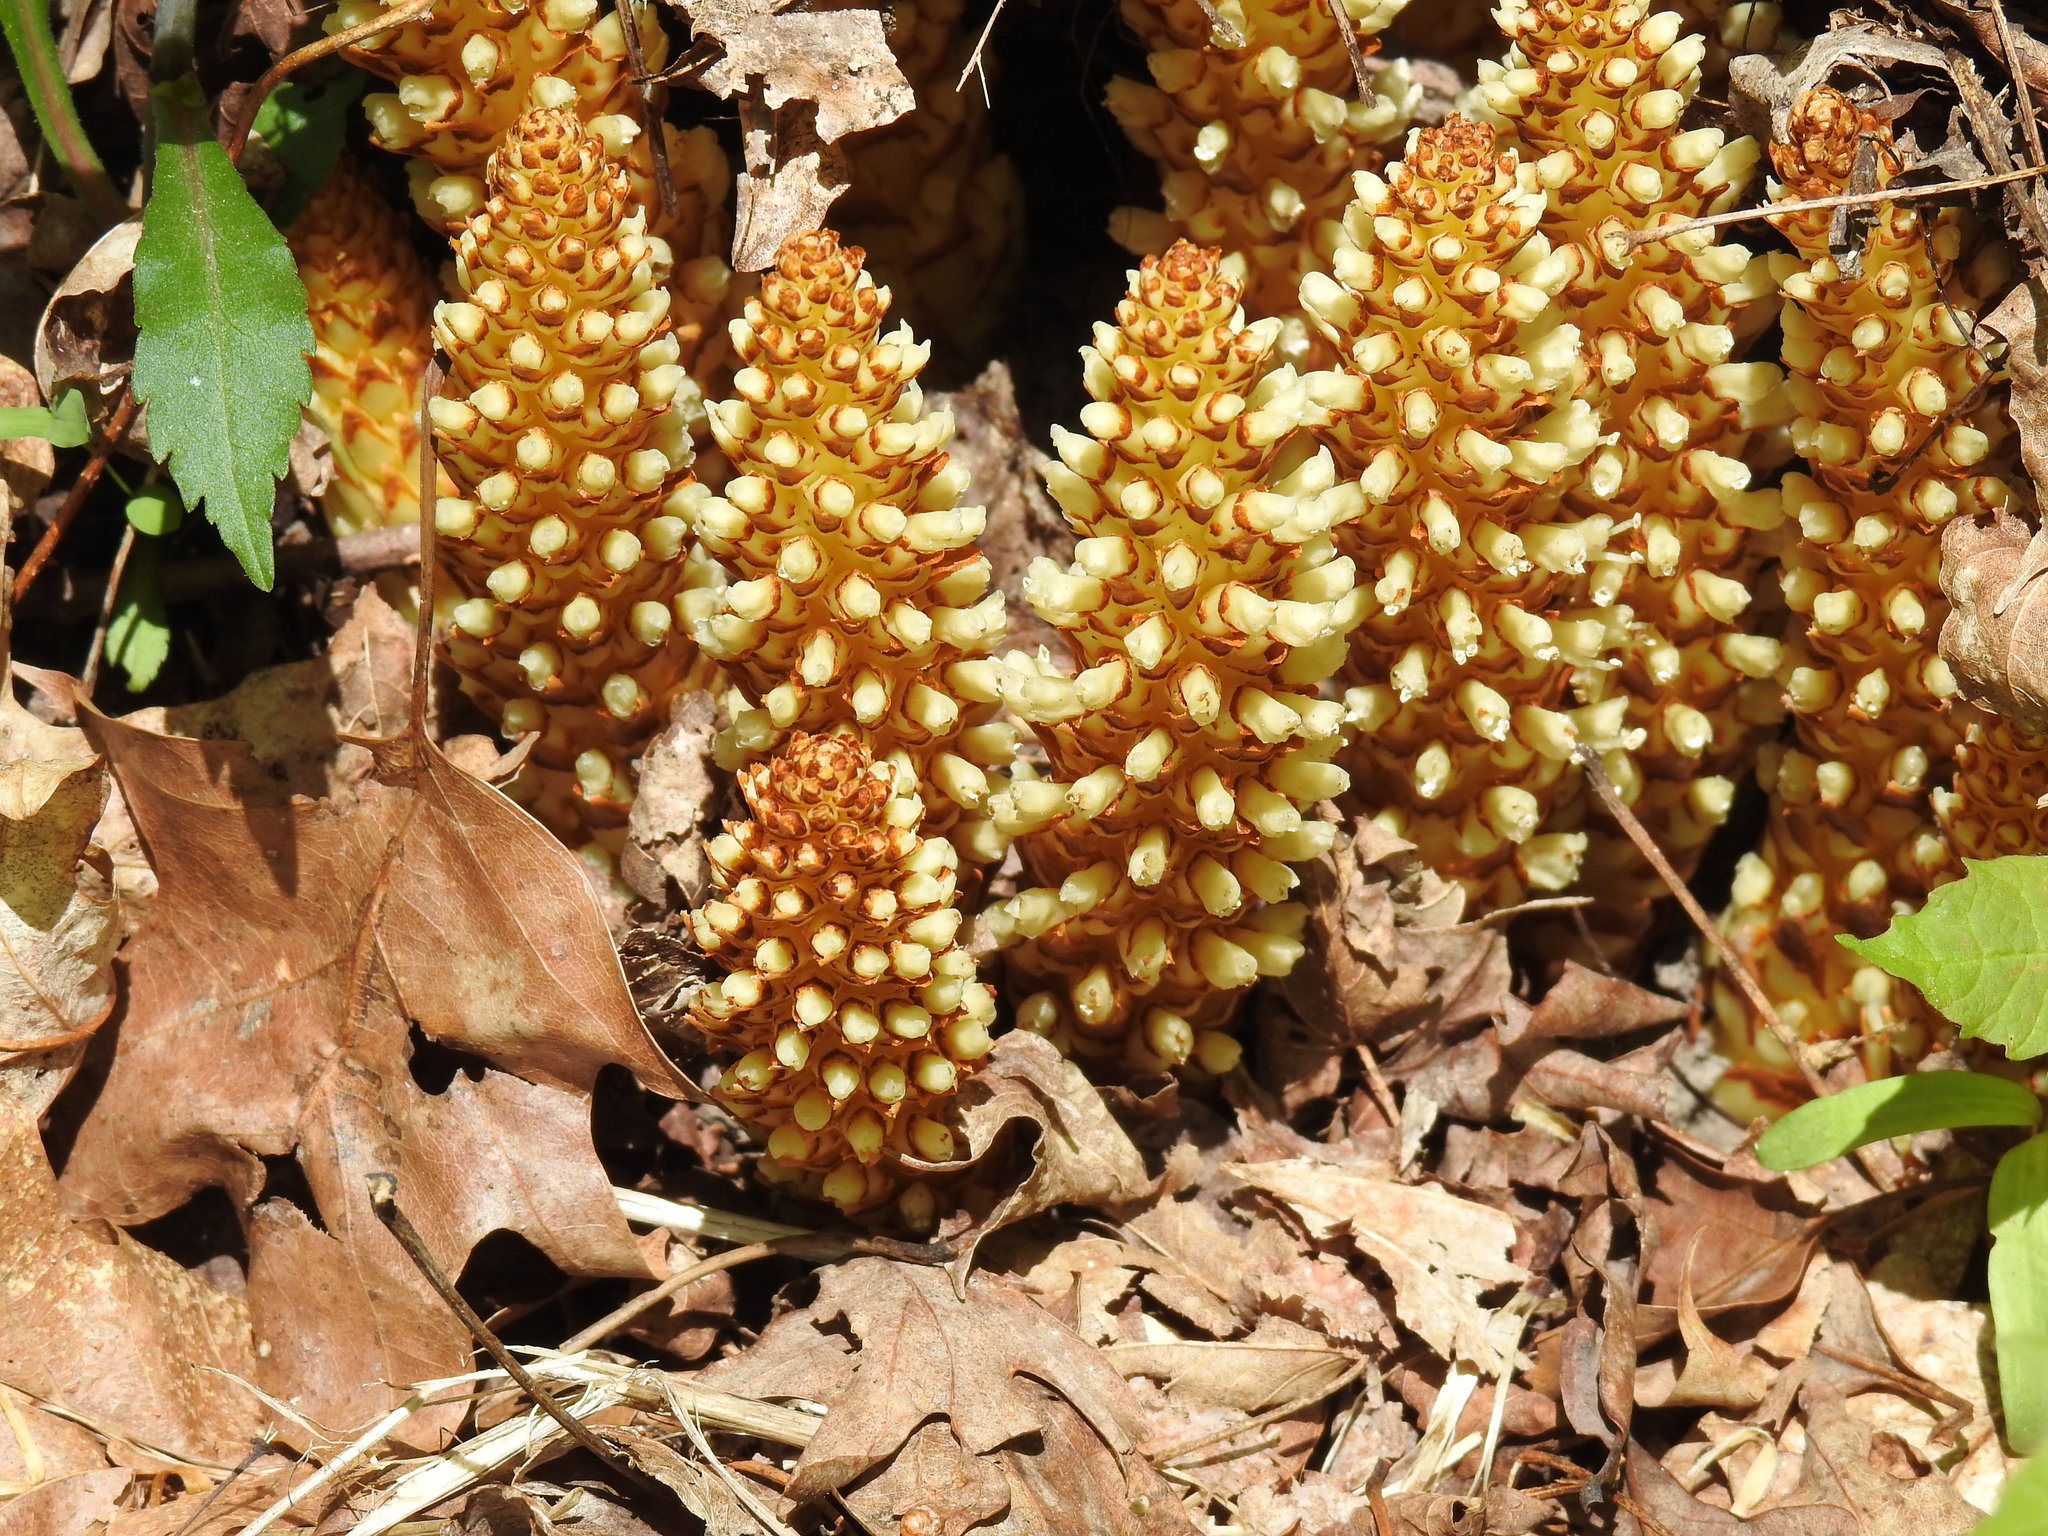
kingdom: Plantae
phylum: Tracheophyta
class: Magnoliopsida
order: Lamiales
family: Orobanchaceae
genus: Conopholis
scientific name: Conopholis americana
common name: American cancer-root
